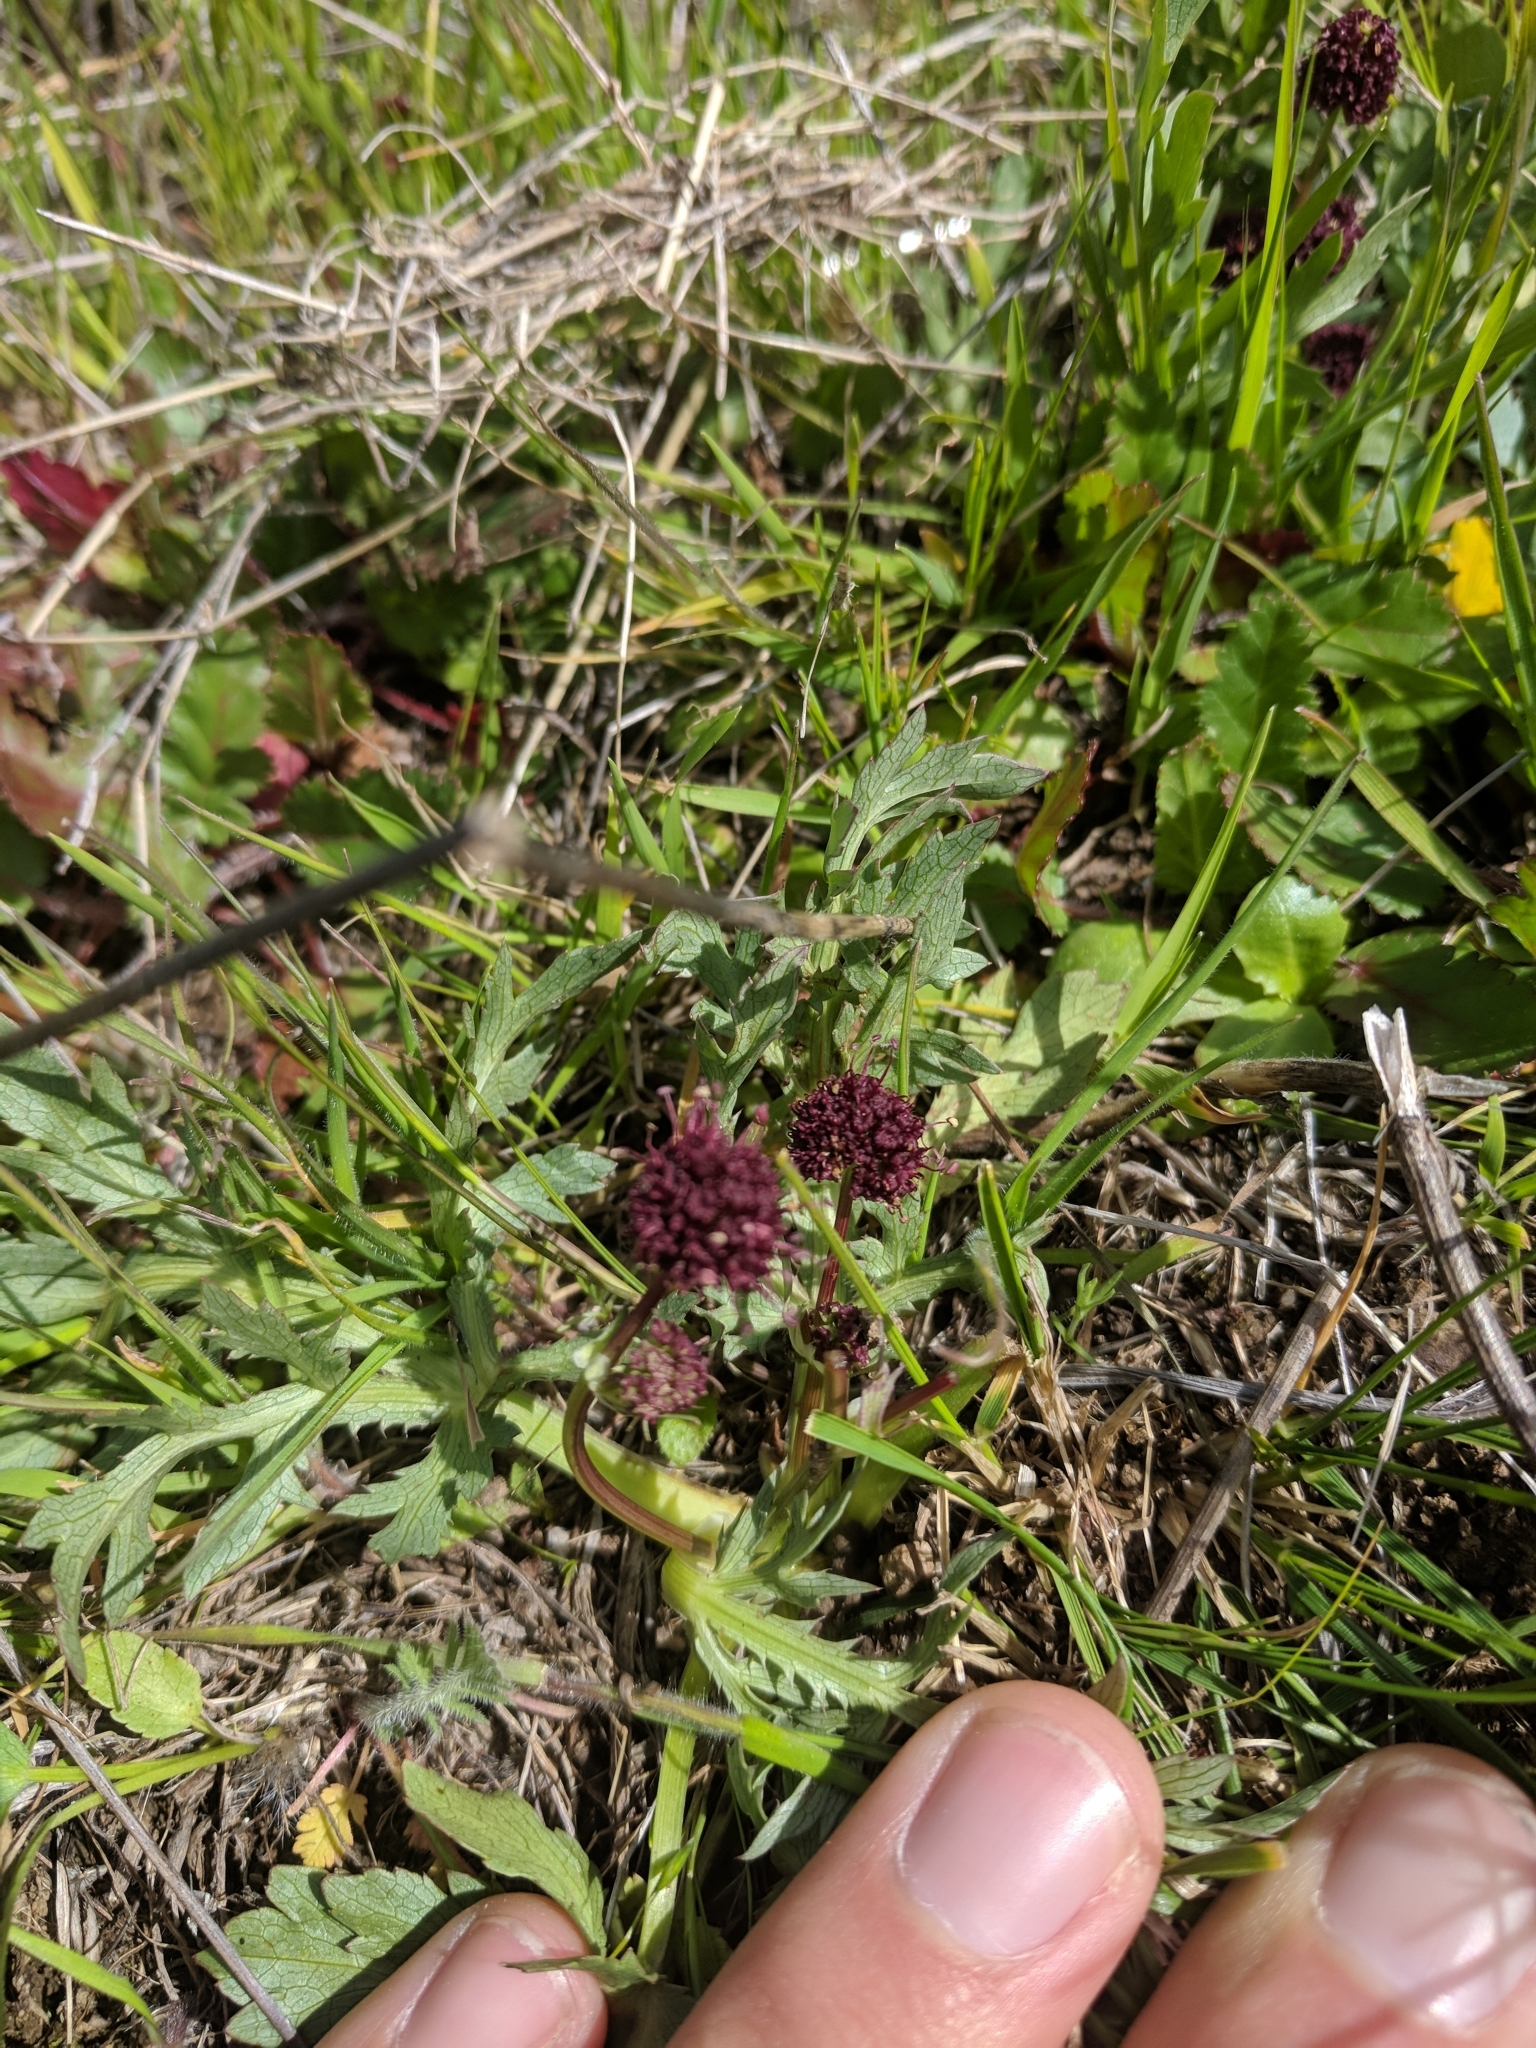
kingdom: Plantae
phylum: Tracheophyta
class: Magnoliopsida
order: Apiales
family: Apiaceae
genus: Sanicula
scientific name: Sanicula bipinnatifida
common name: Shoe-buttons
